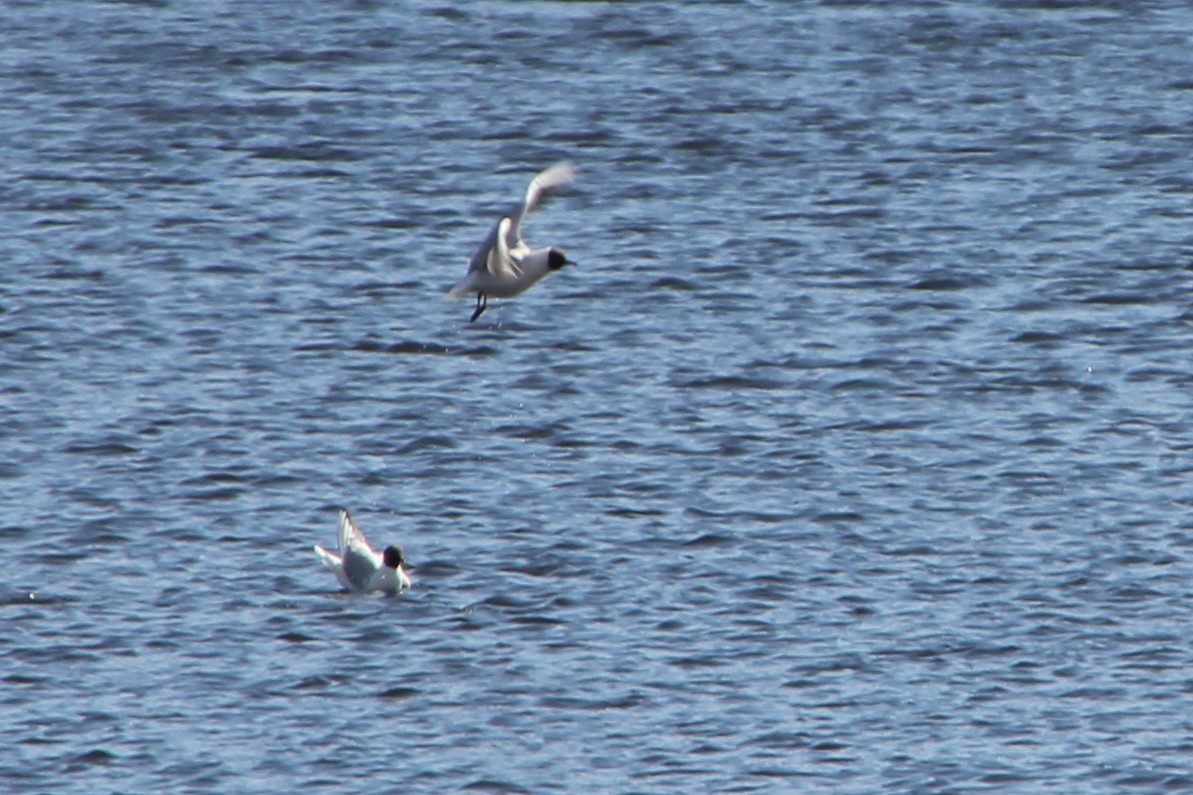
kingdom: Animalia
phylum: Chordata
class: Aves
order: Charadriiformes
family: Laridae
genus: Chroicocephalus
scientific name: Chroicocephalus ridibundus
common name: Black-headed gull
